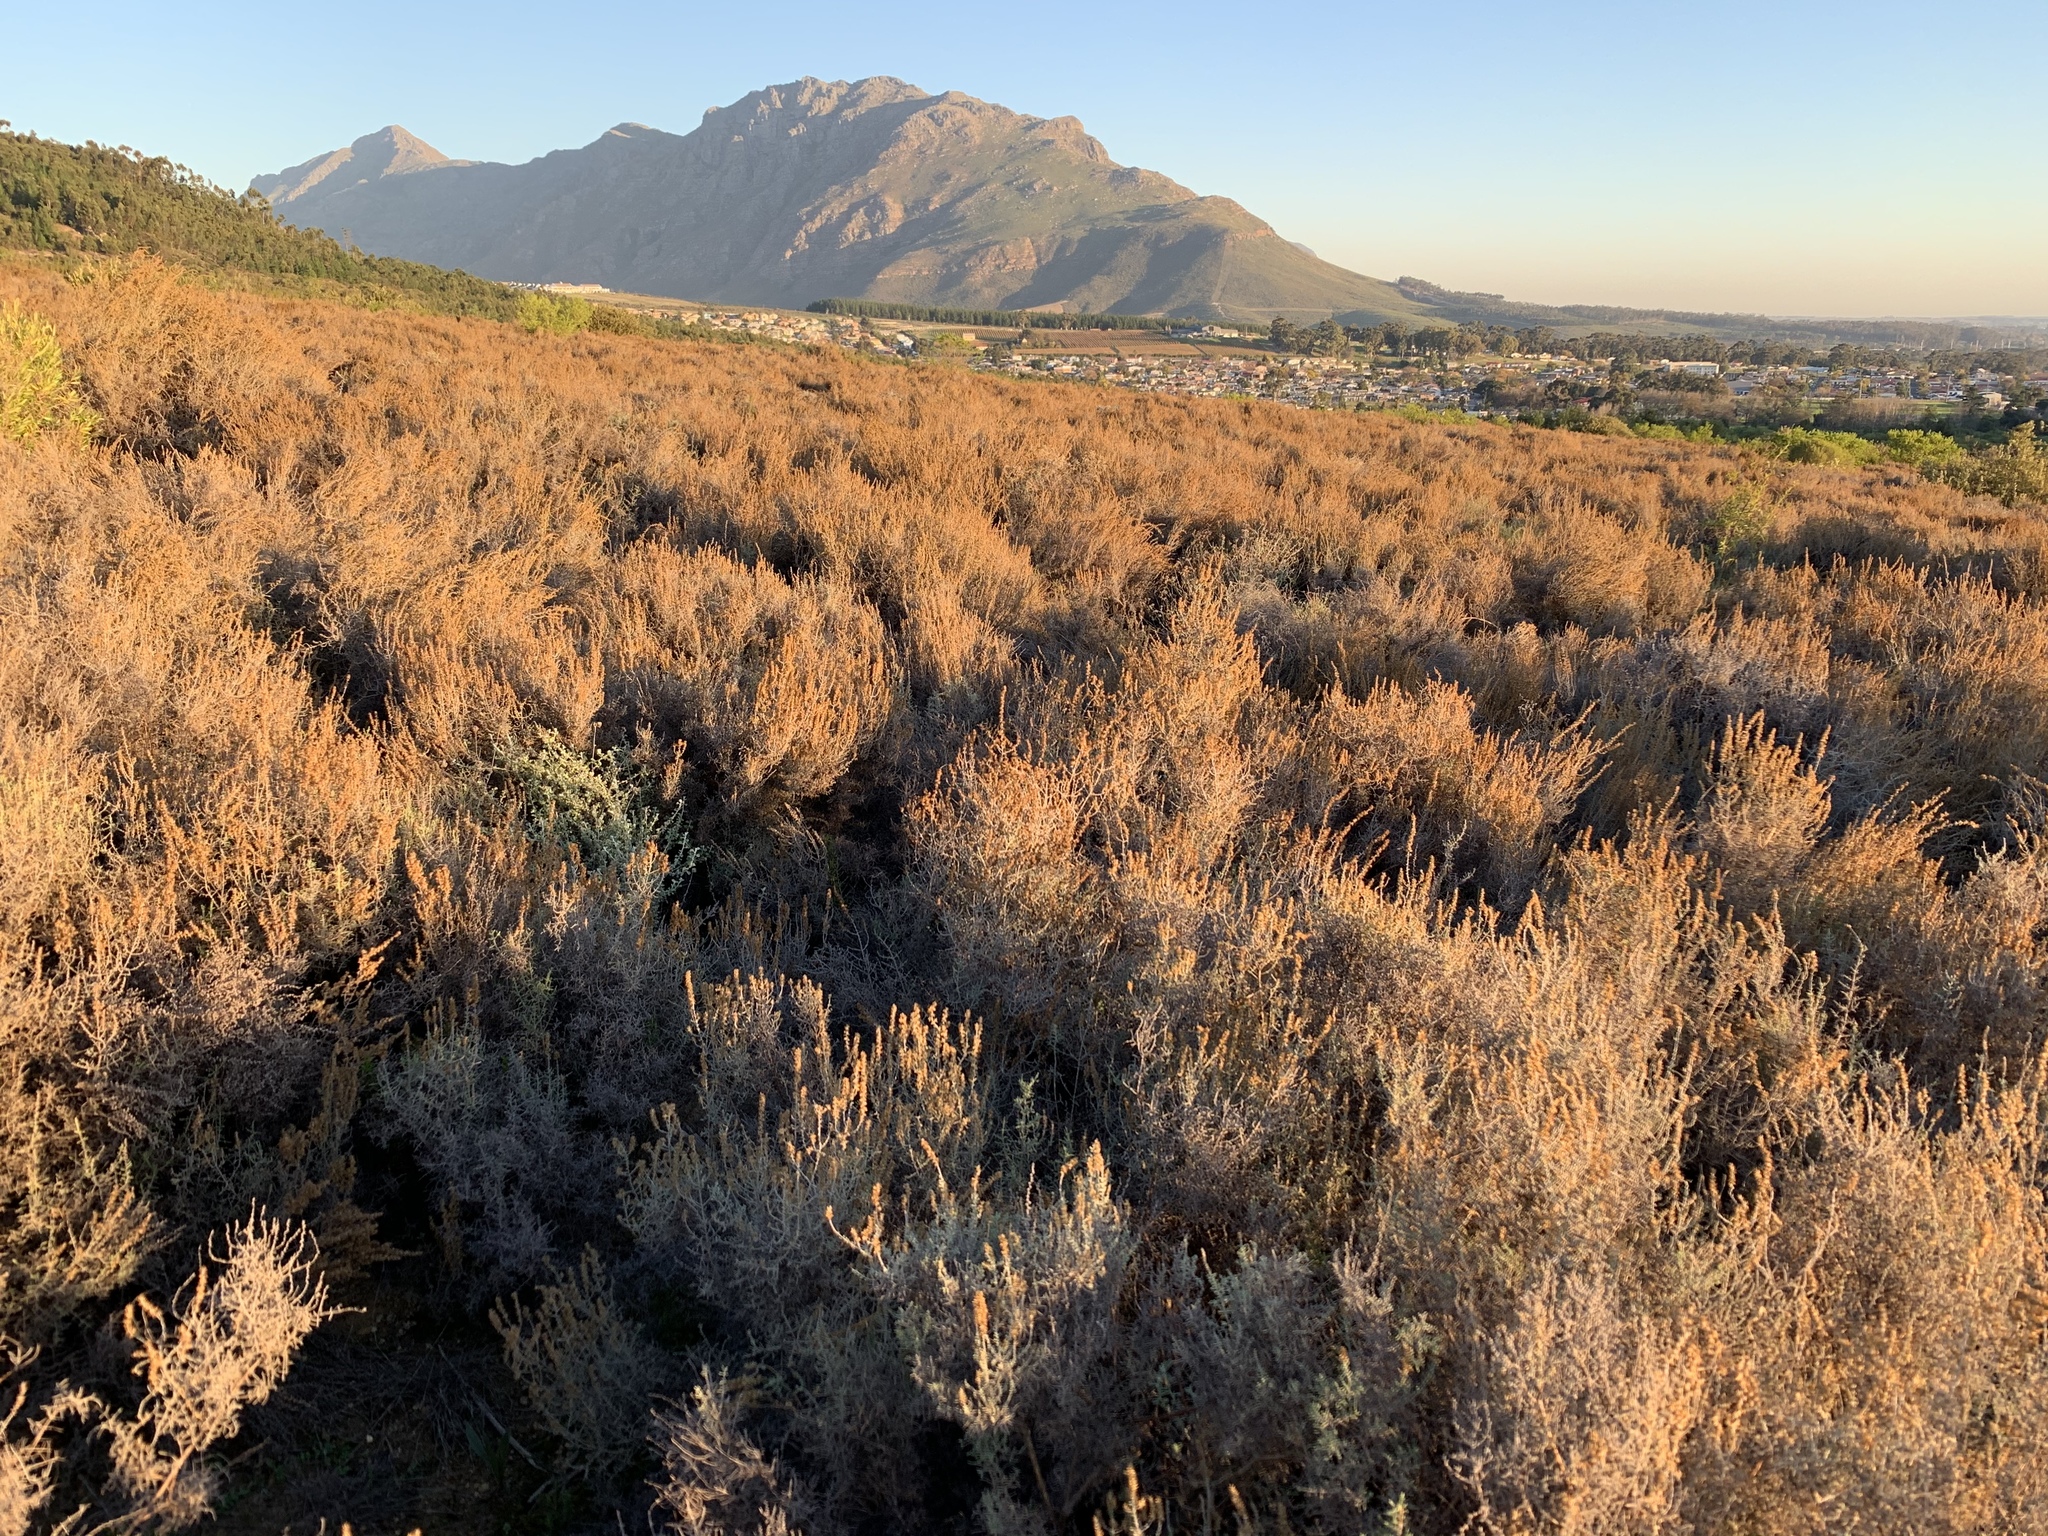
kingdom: Plantae
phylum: Tracheophyta
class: Magnoliopsida
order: Asterales
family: Asteraceae
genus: Seriphium
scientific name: Seriphium plumosum
